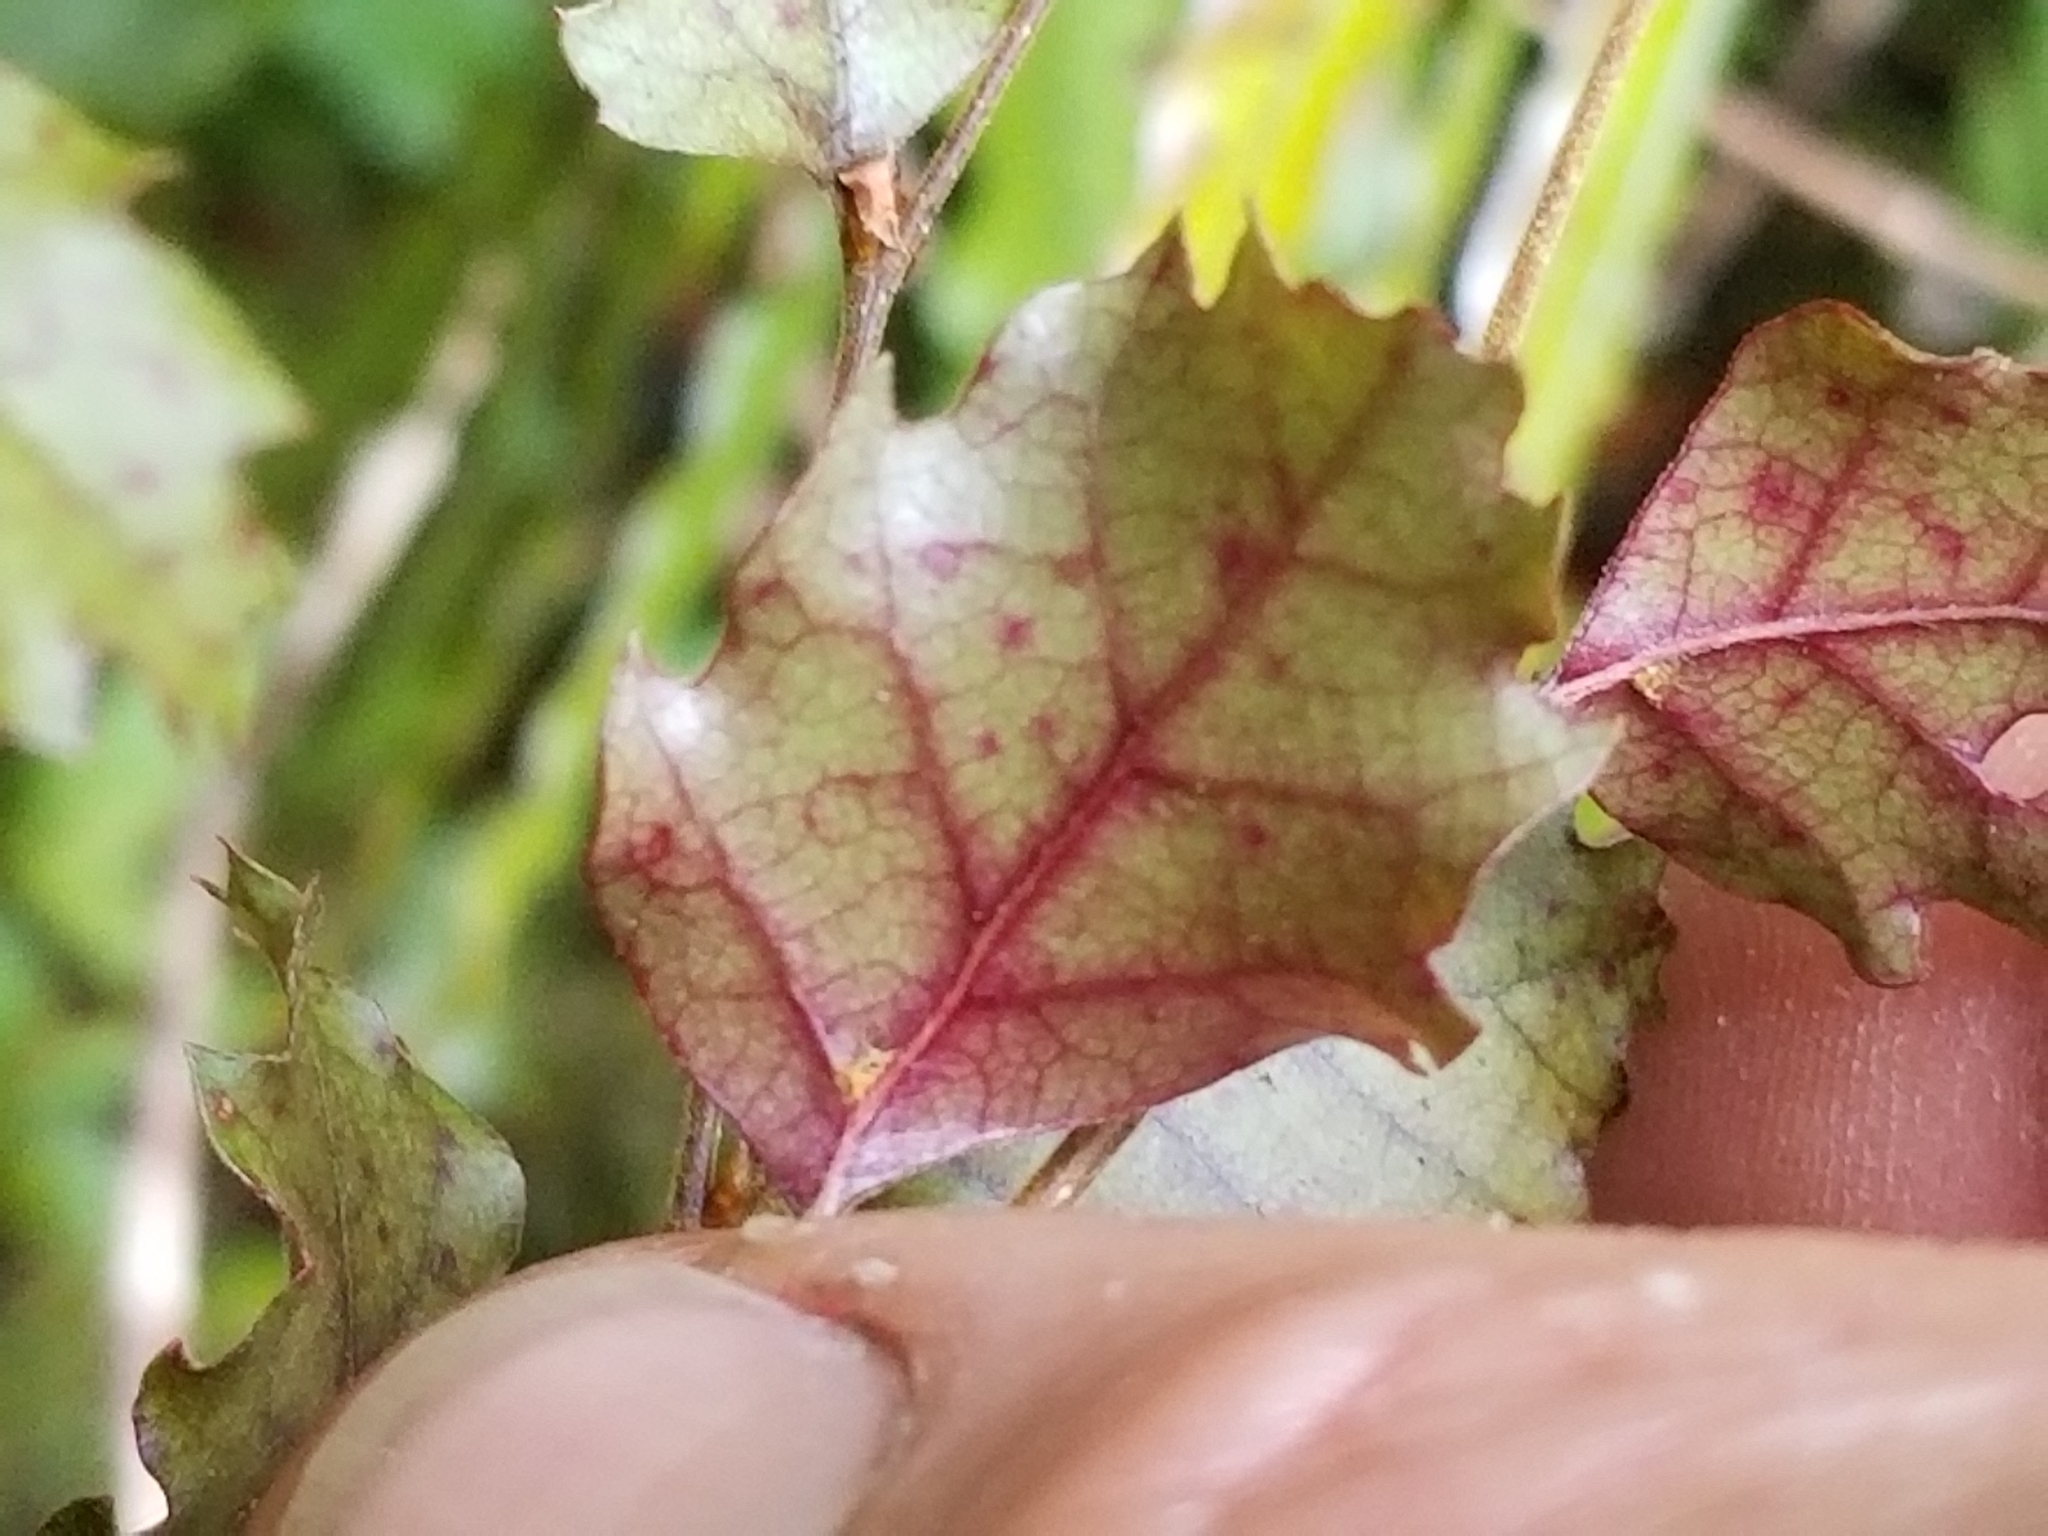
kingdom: Plantae
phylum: Tracheophyta
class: Magnoliopsida
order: Fagales
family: Nothofagaceae
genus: Nothofagus
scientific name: Nothofagus fusca
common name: Red beech
